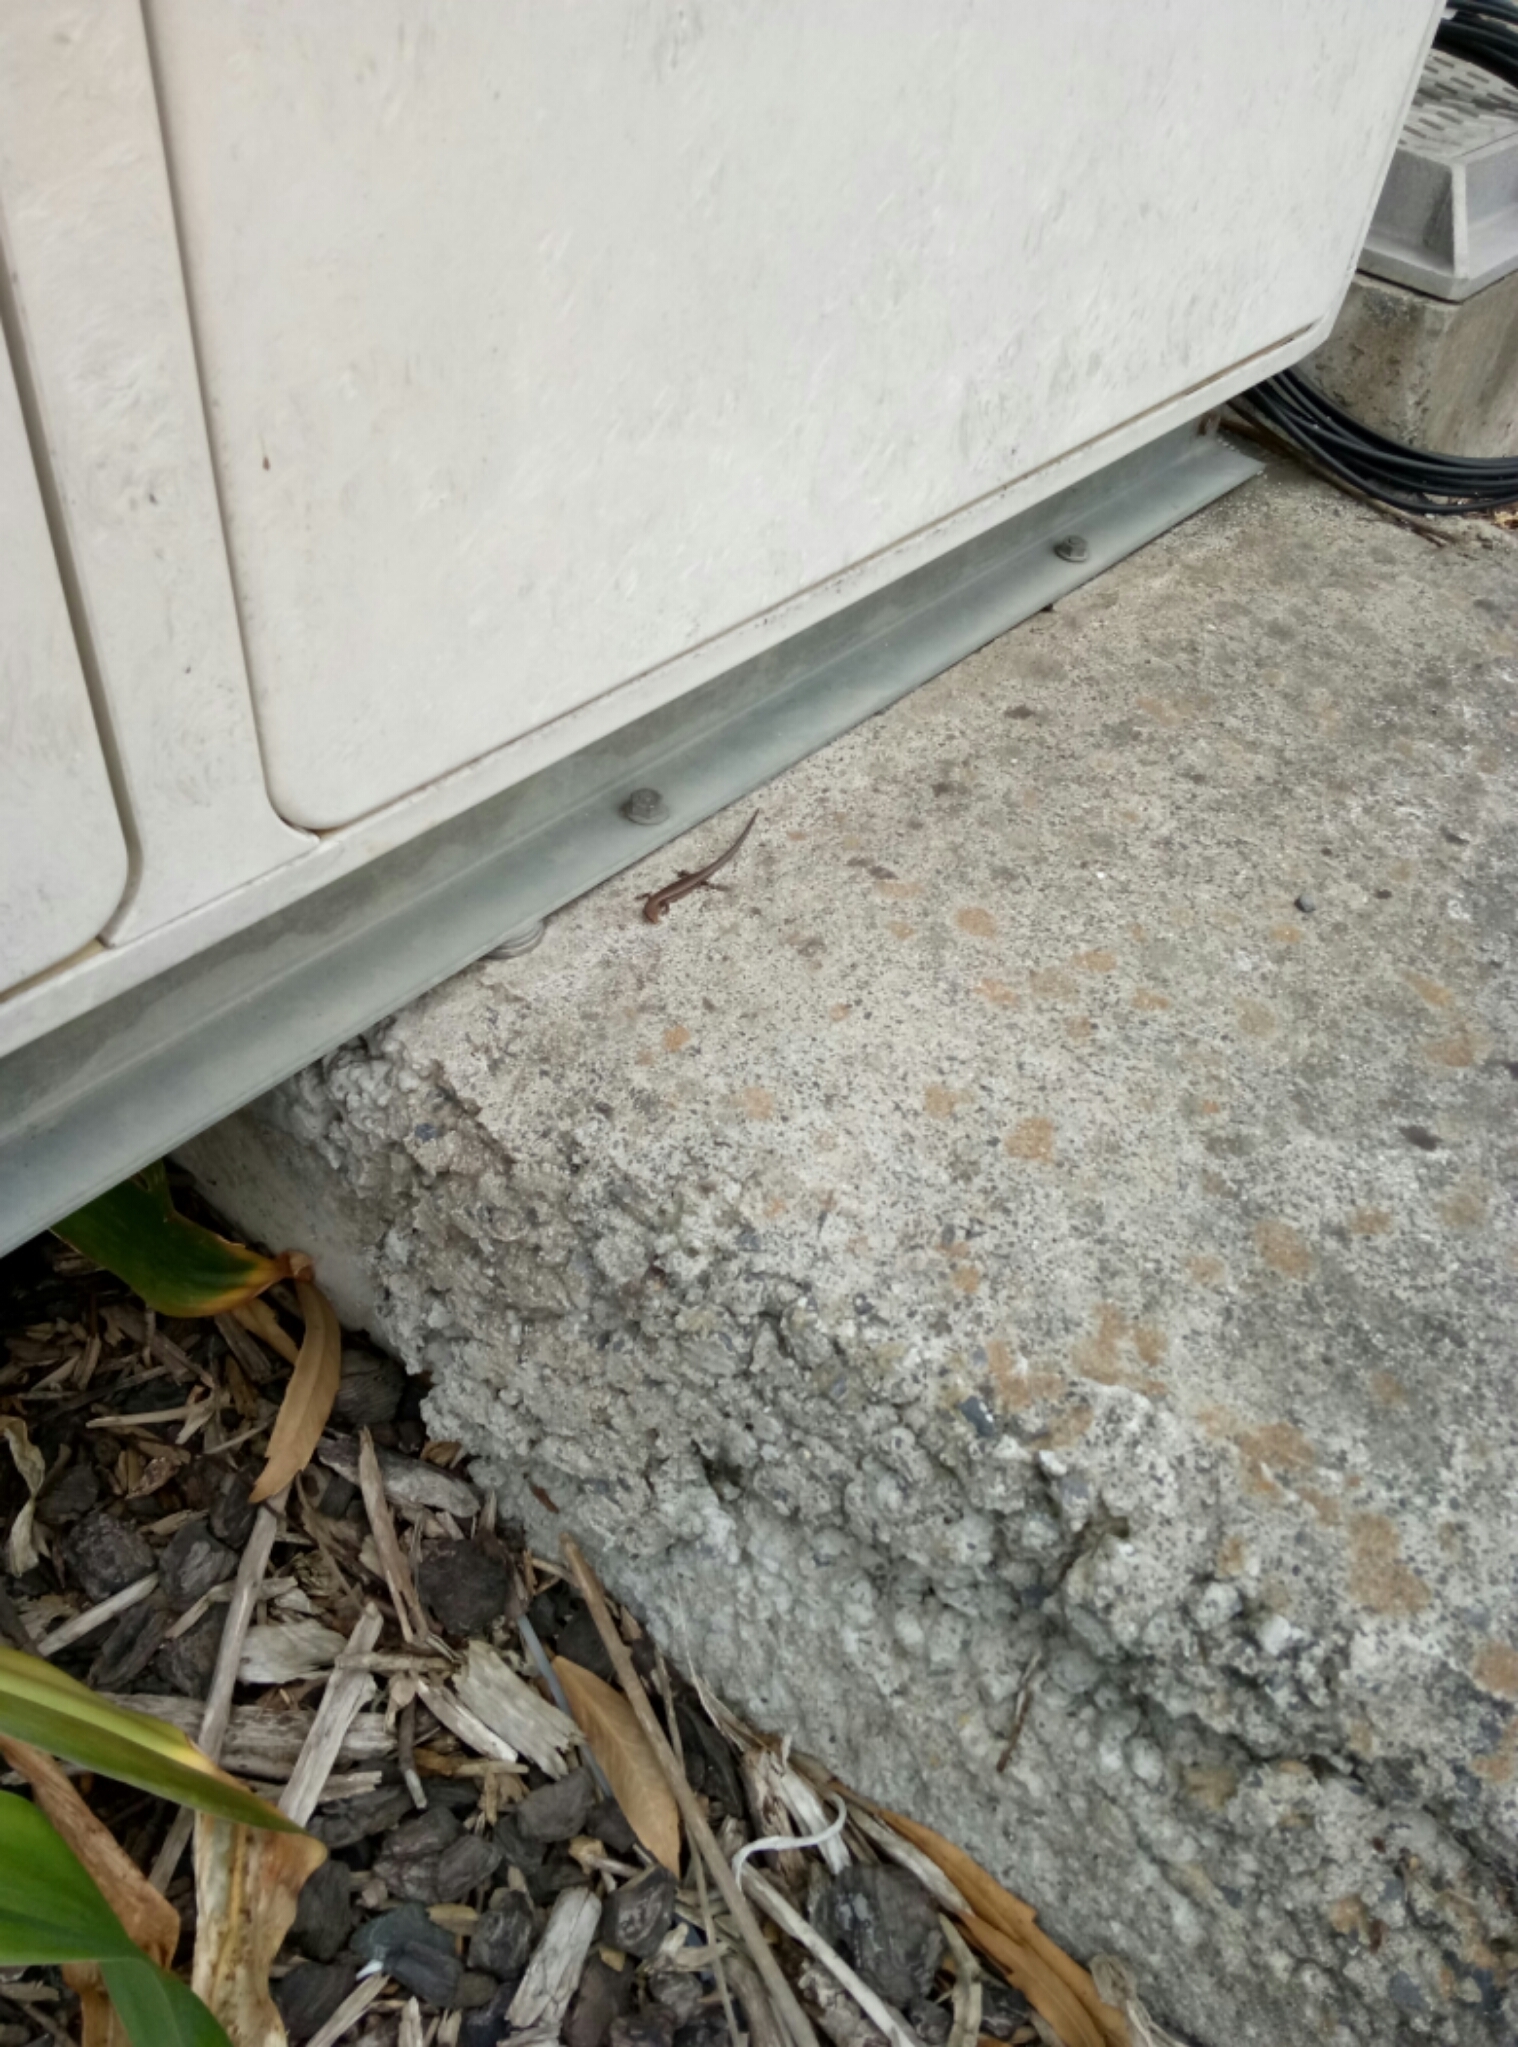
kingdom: Animalia
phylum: Chordata
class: Squamata
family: Scincidae
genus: Lampropholis
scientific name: Lampropholis delicata
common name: Plague skink
